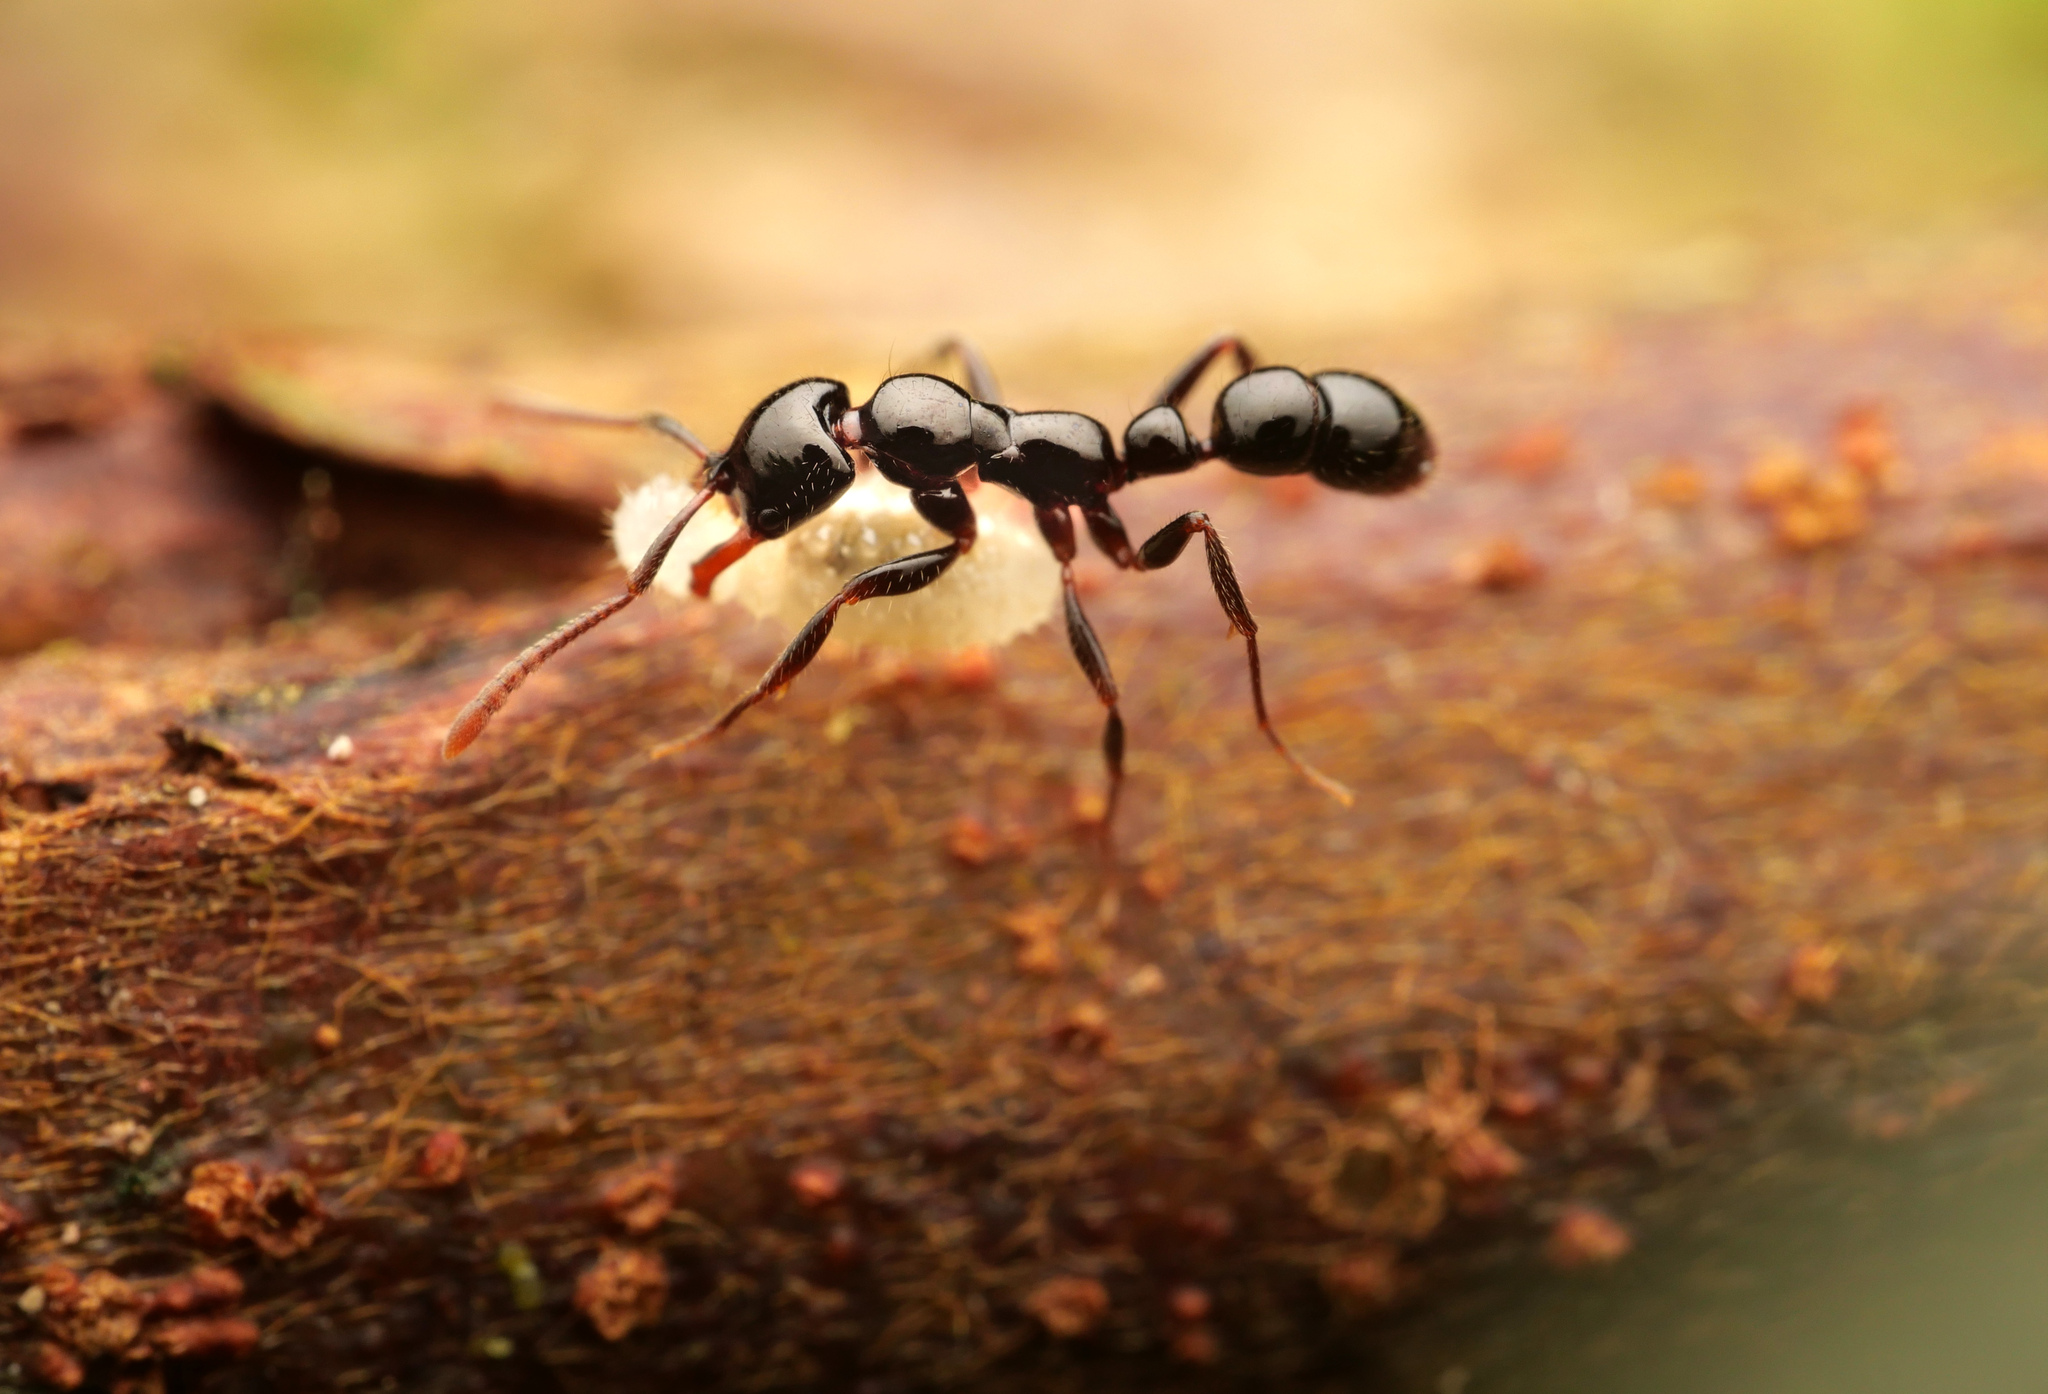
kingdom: Animalia
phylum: Arthropoda
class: Insecta
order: Hymenoptera
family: Formicidae
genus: Myopias
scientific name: Myopias latinoda
